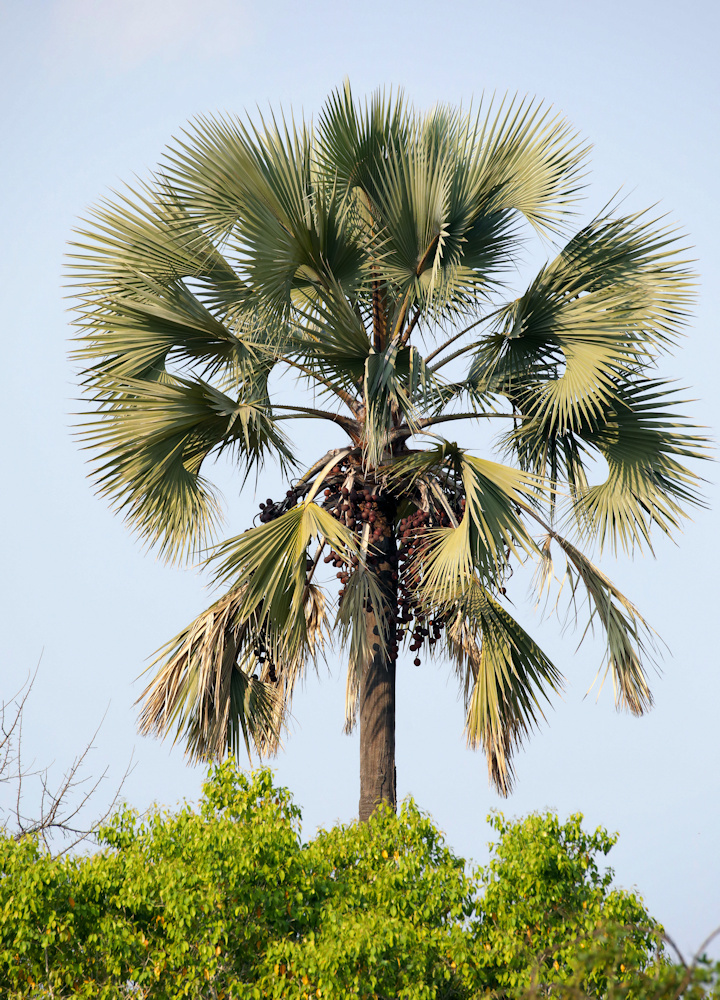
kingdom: Plantae
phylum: Tracheophyta
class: Liliopsida
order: Arecales
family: Arecaceae
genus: Hyphaene
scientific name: Hyphaene petersiana
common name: African ivory nut palm
